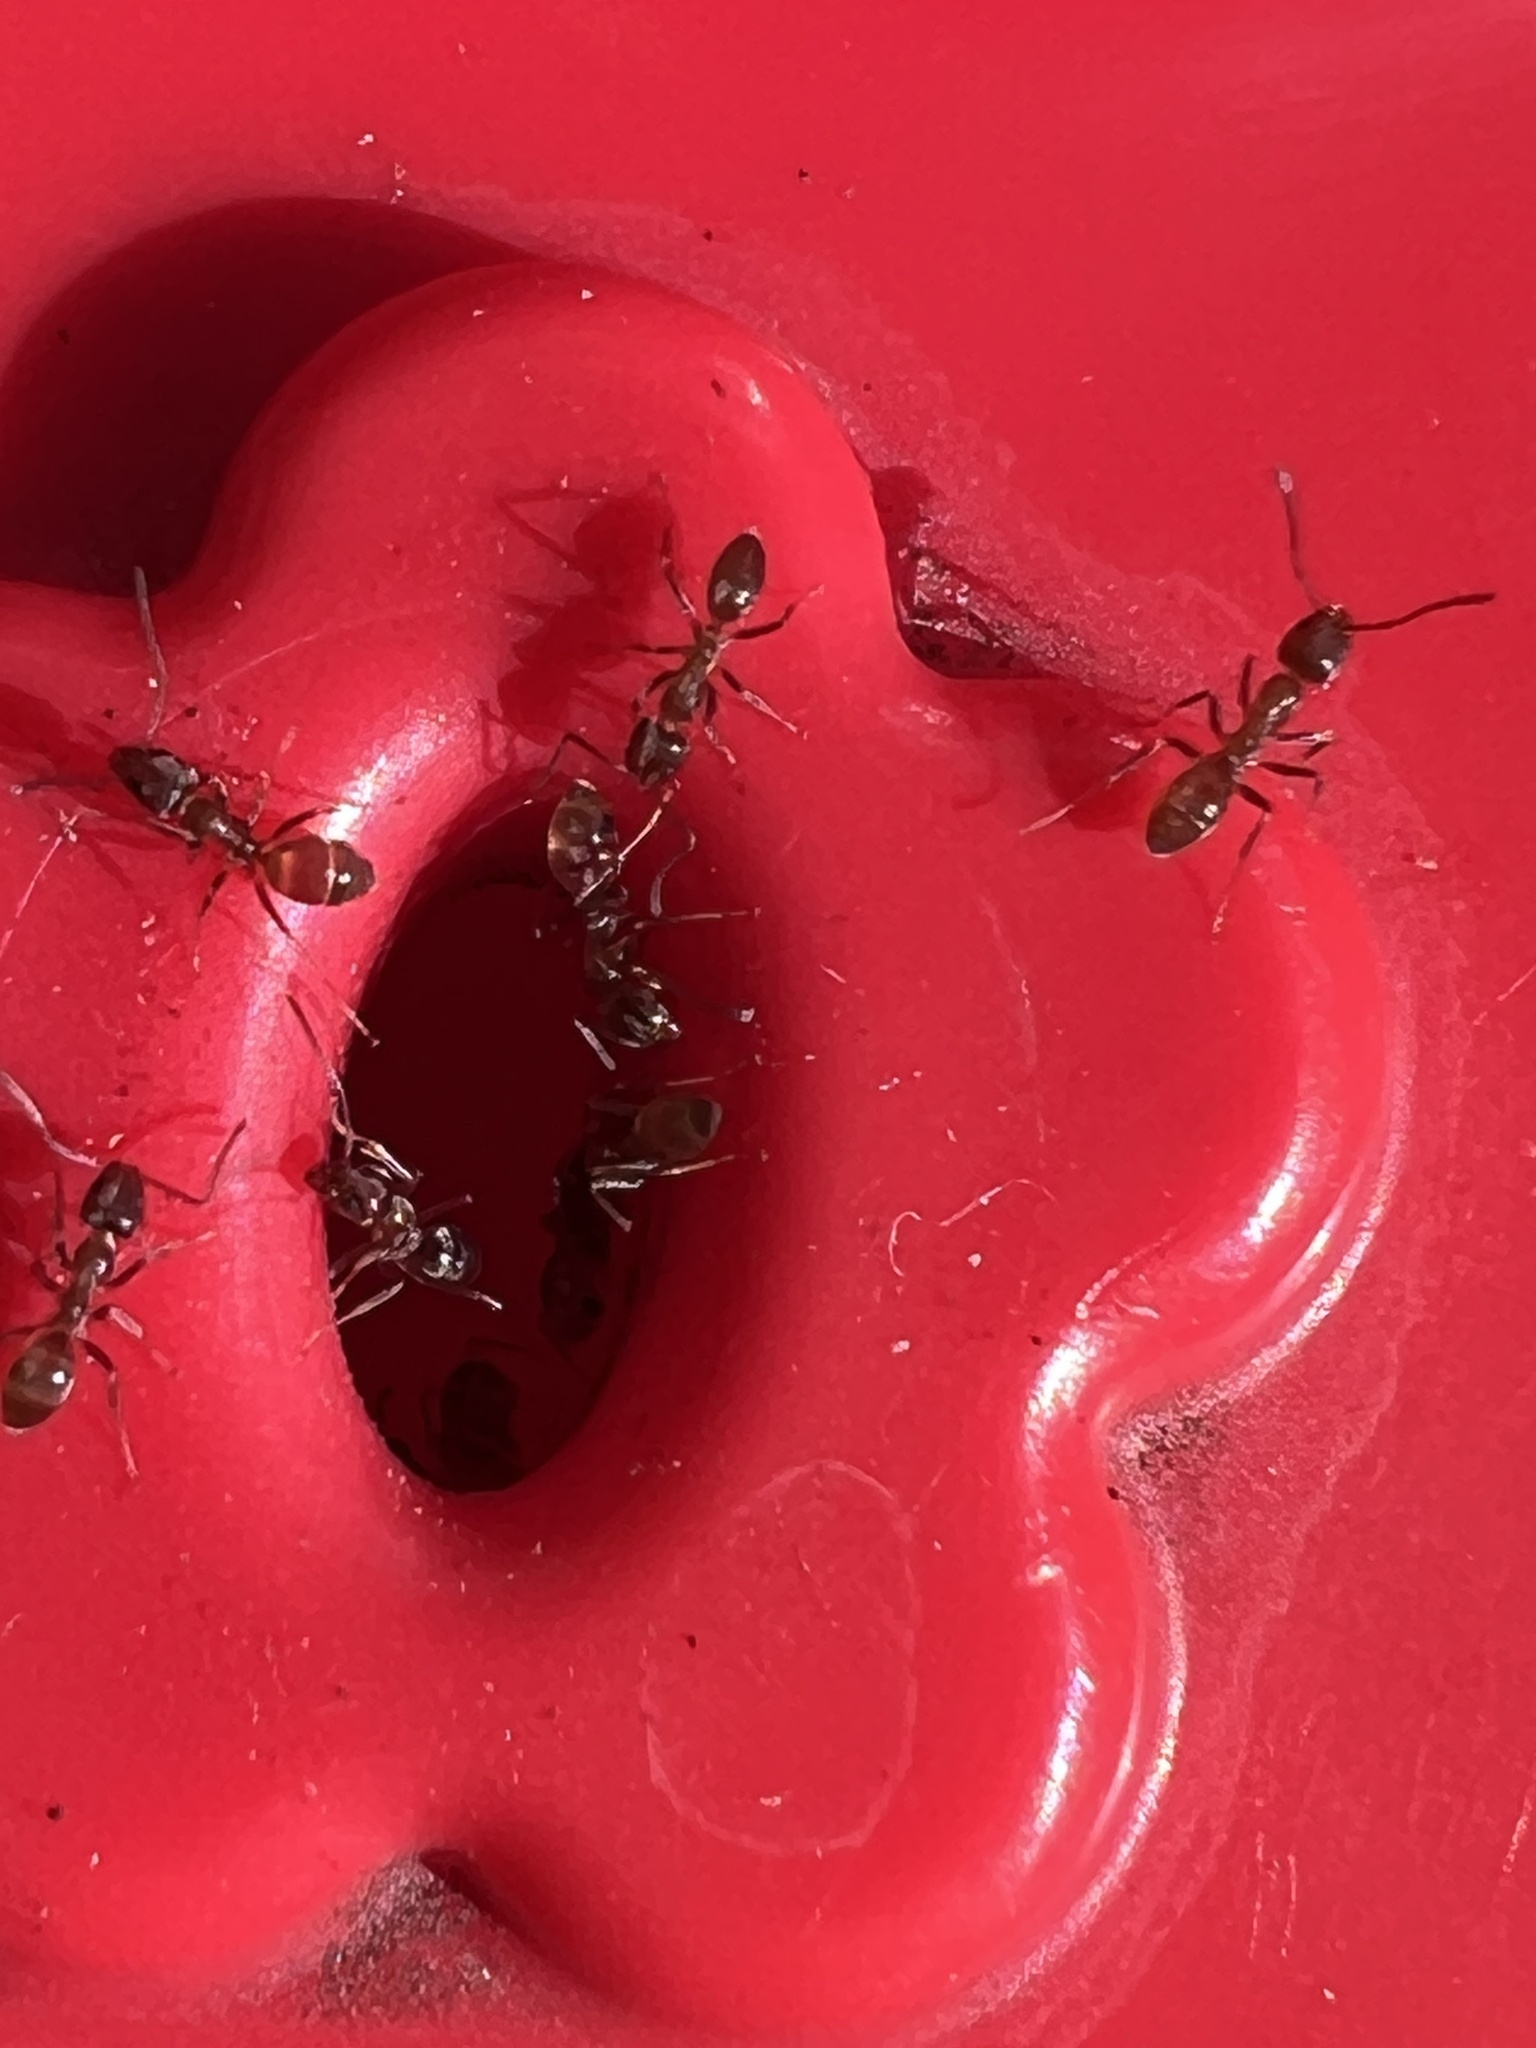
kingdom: Animalia
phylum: Arthropoda
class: Insecta
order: Hymenoptera
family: Formicidae
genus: Linepithema
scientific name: Linepithema humile
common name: Argentine ant
